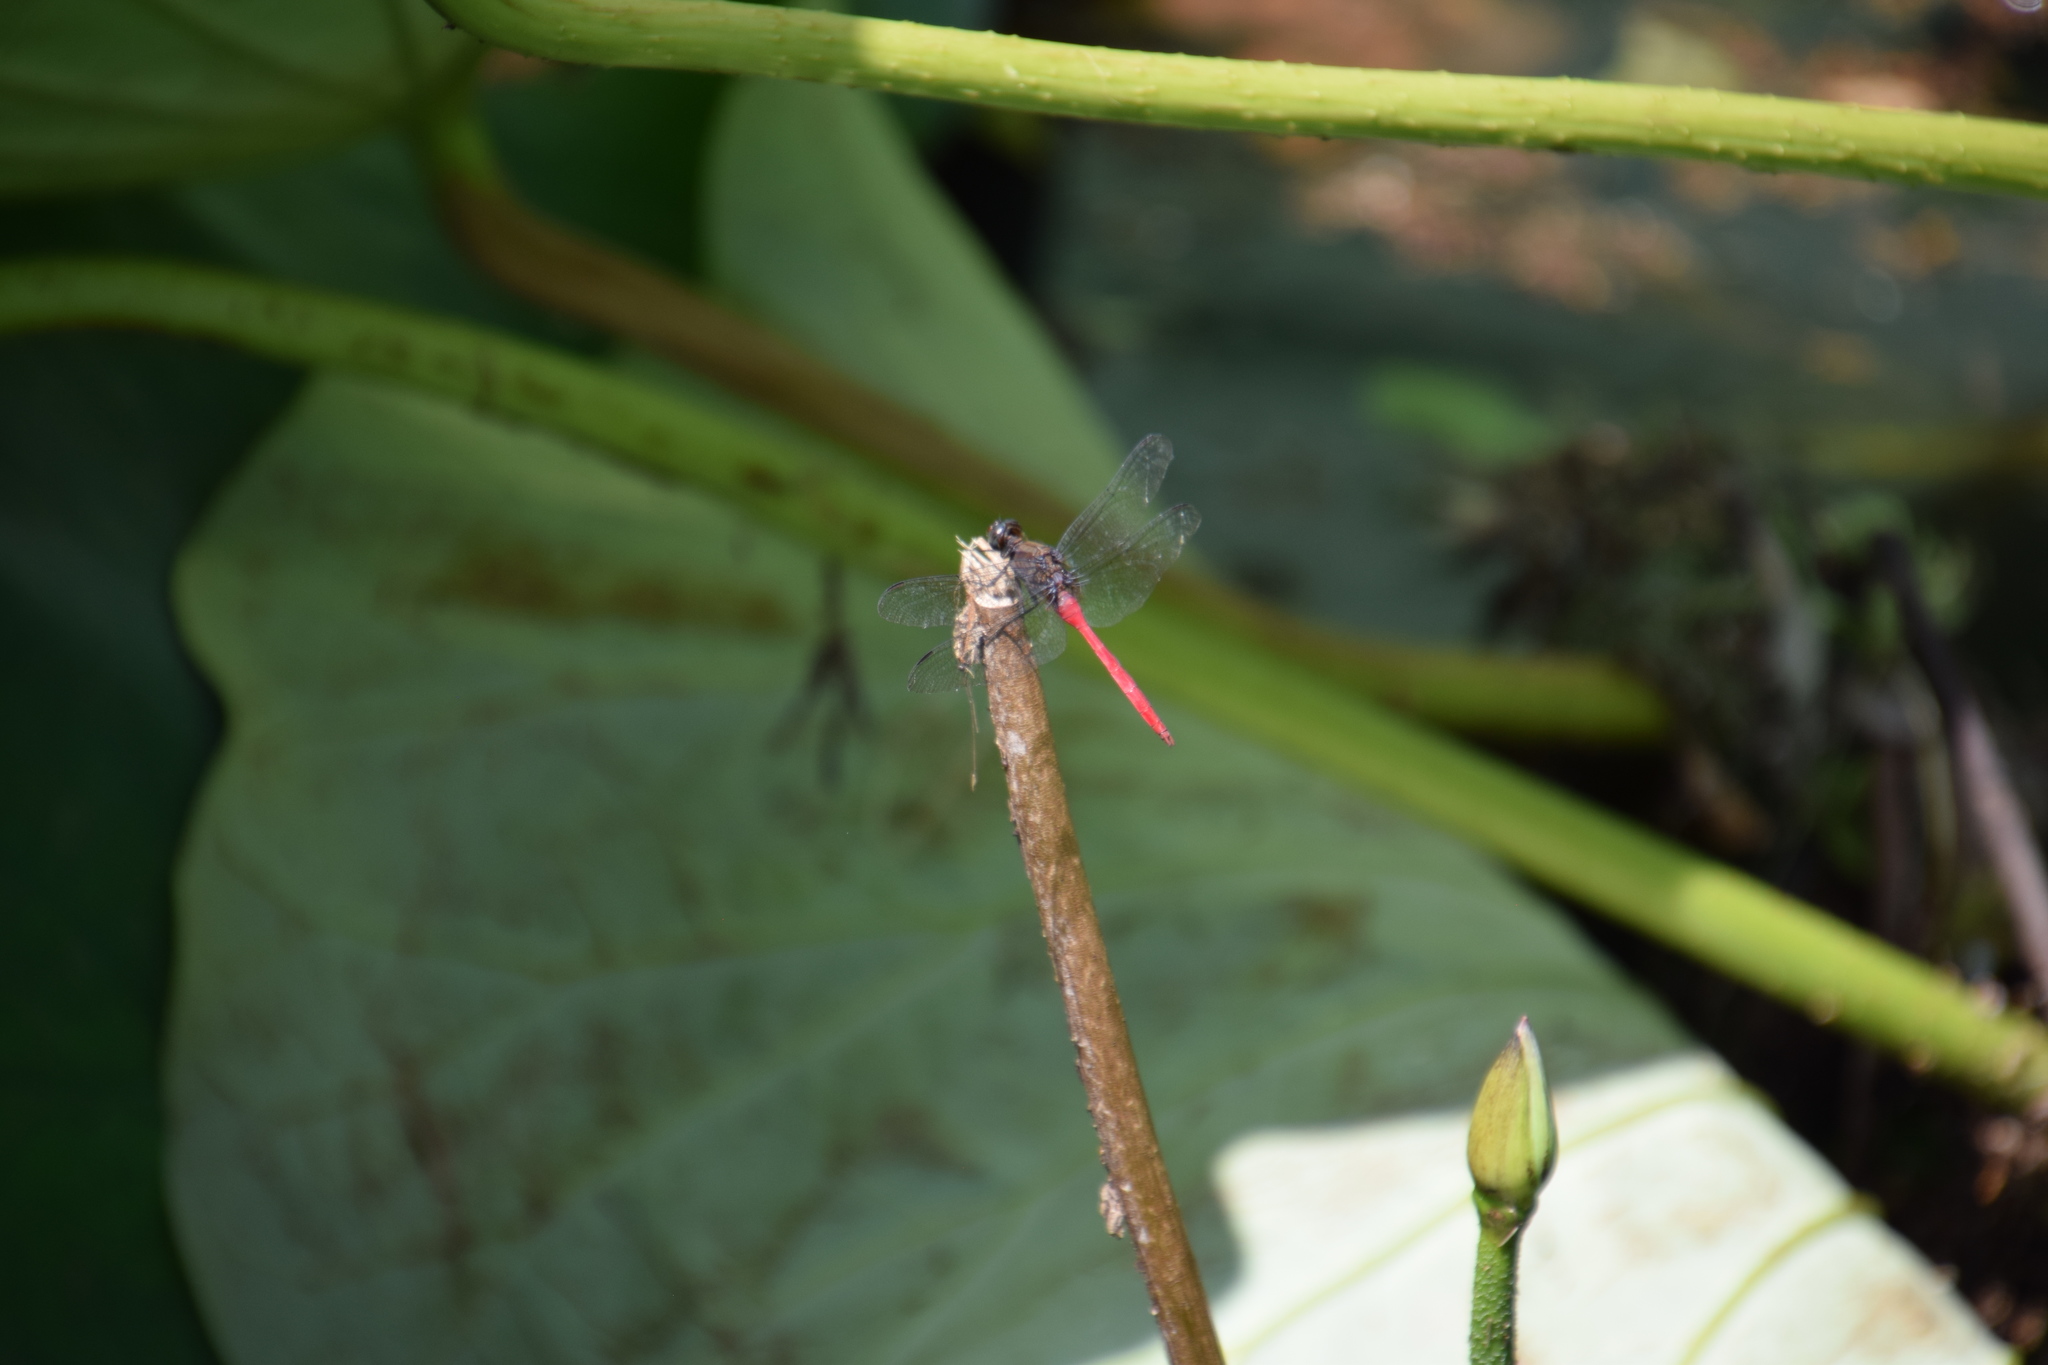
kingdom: Animalia
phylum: Arthropoda
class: Insecta
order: Odonata
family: Libellulidae
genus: Orthetrum
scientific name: Orthetrum villosovittatum
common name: Firery skimmer
